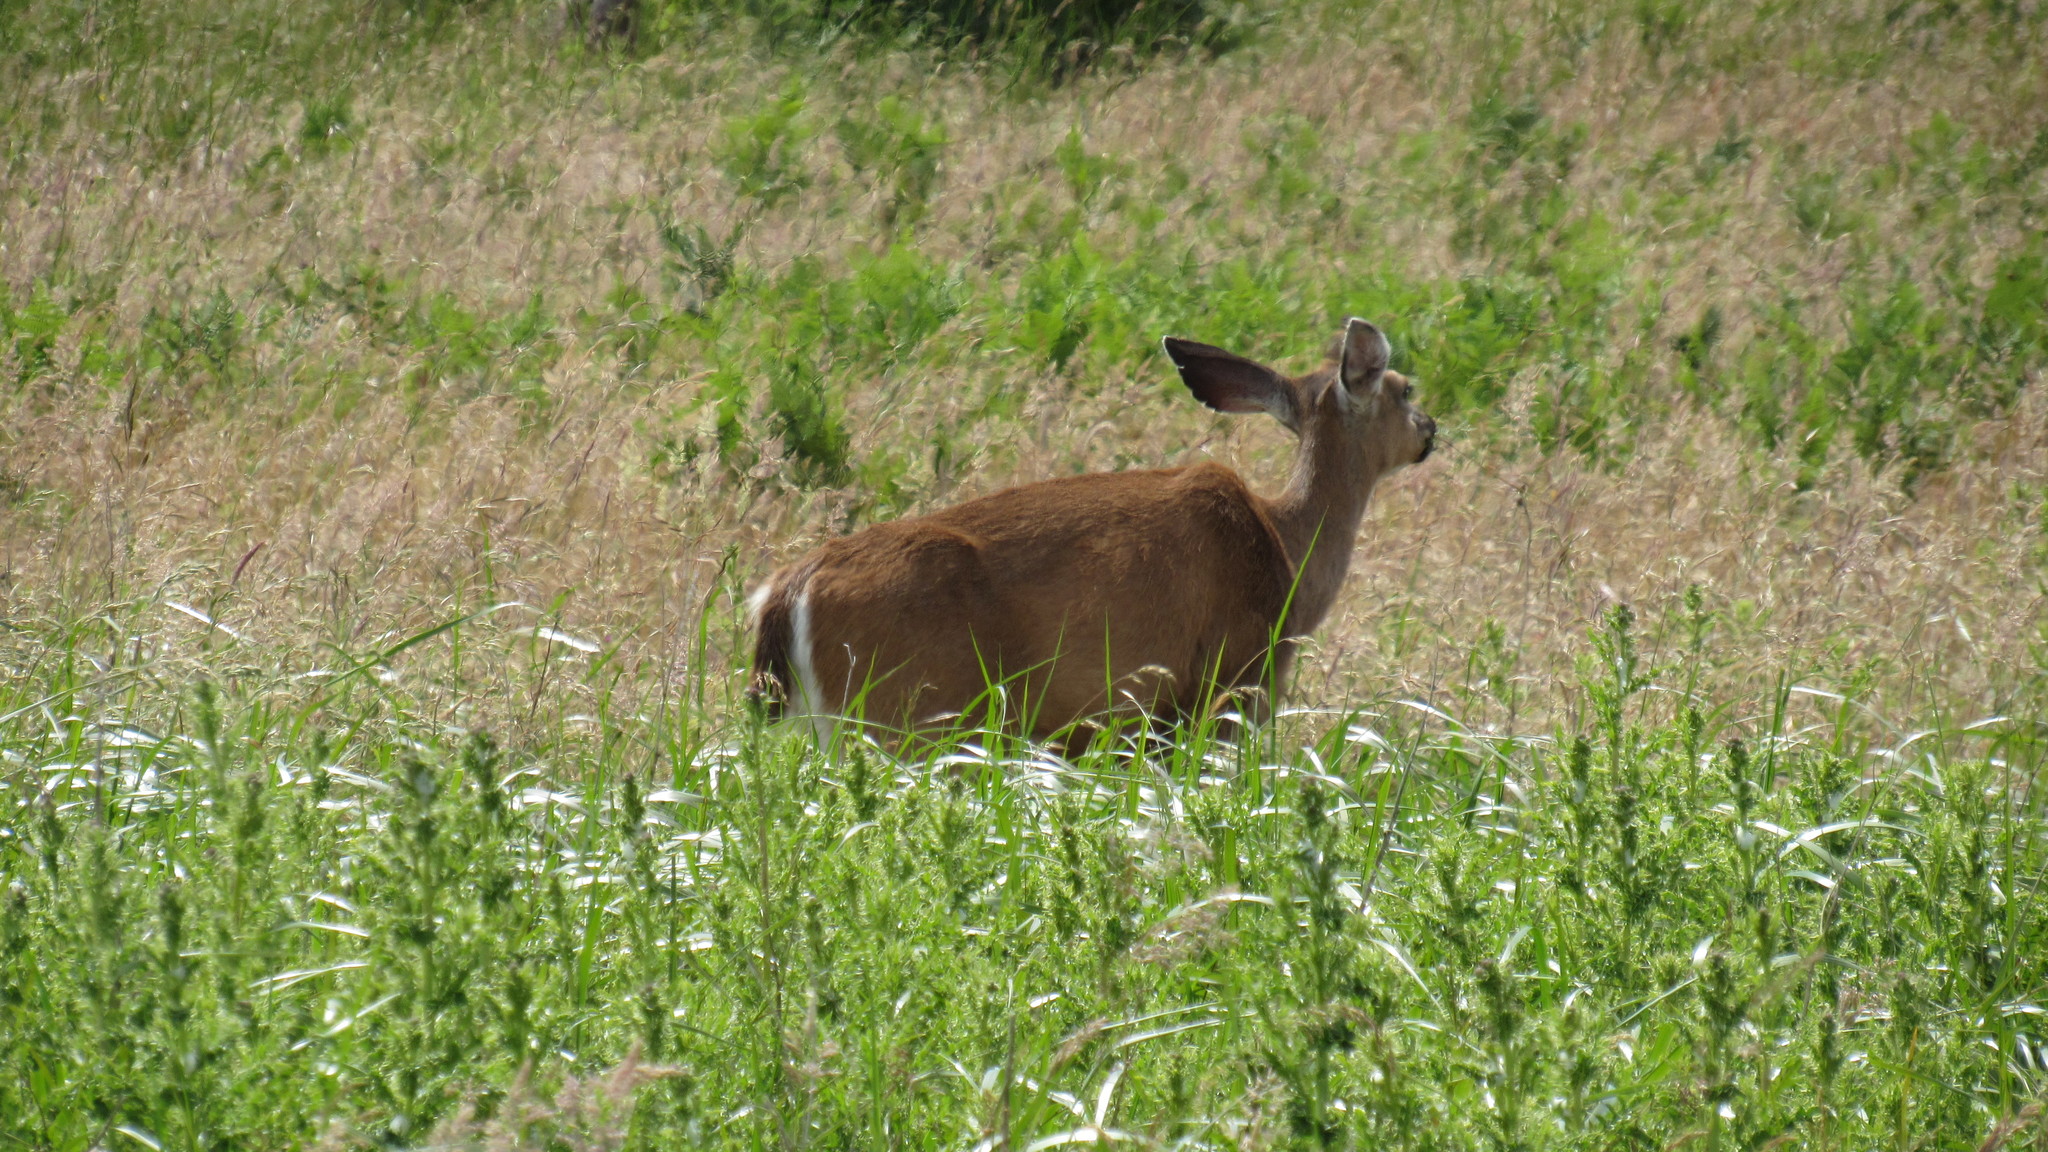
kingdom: Animalia
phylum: Chordata
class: Mammalia
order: Artiodactyla
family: Cervidae
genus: Odocoileus
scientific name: Odocoileus hemionus
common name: Mule deer
